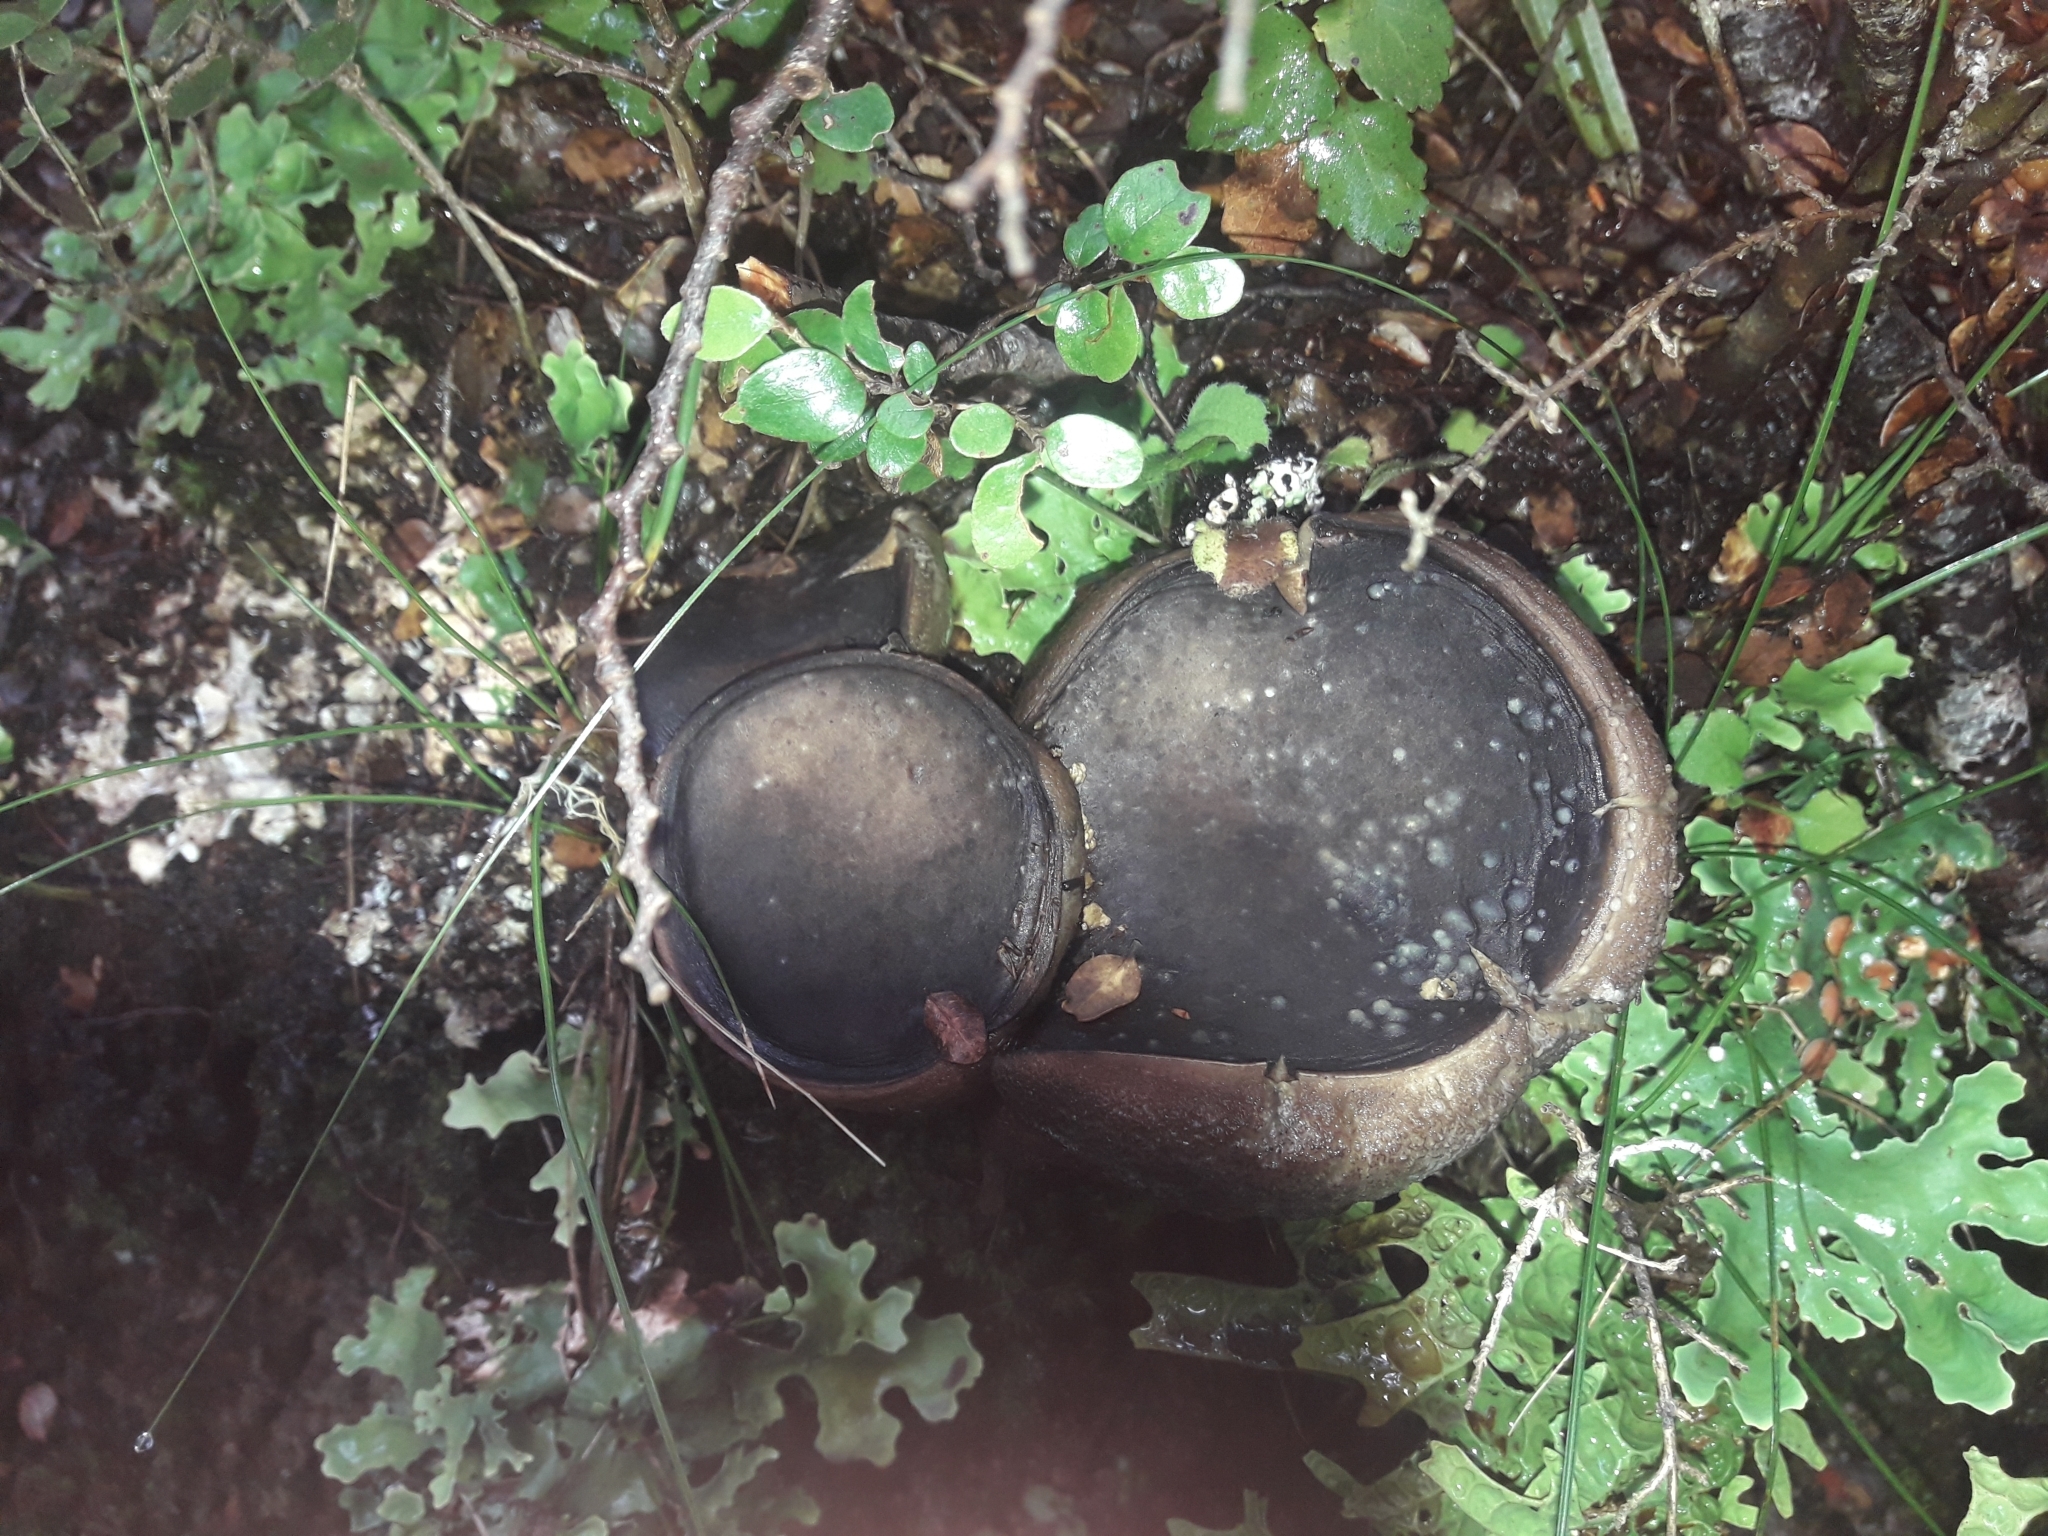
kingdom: Fungi
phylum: Basidiomycota
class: Agaricomycetes
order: Boletales
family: Boletaceae
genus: Porphyrellus
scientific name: Porphyrellus formosus
